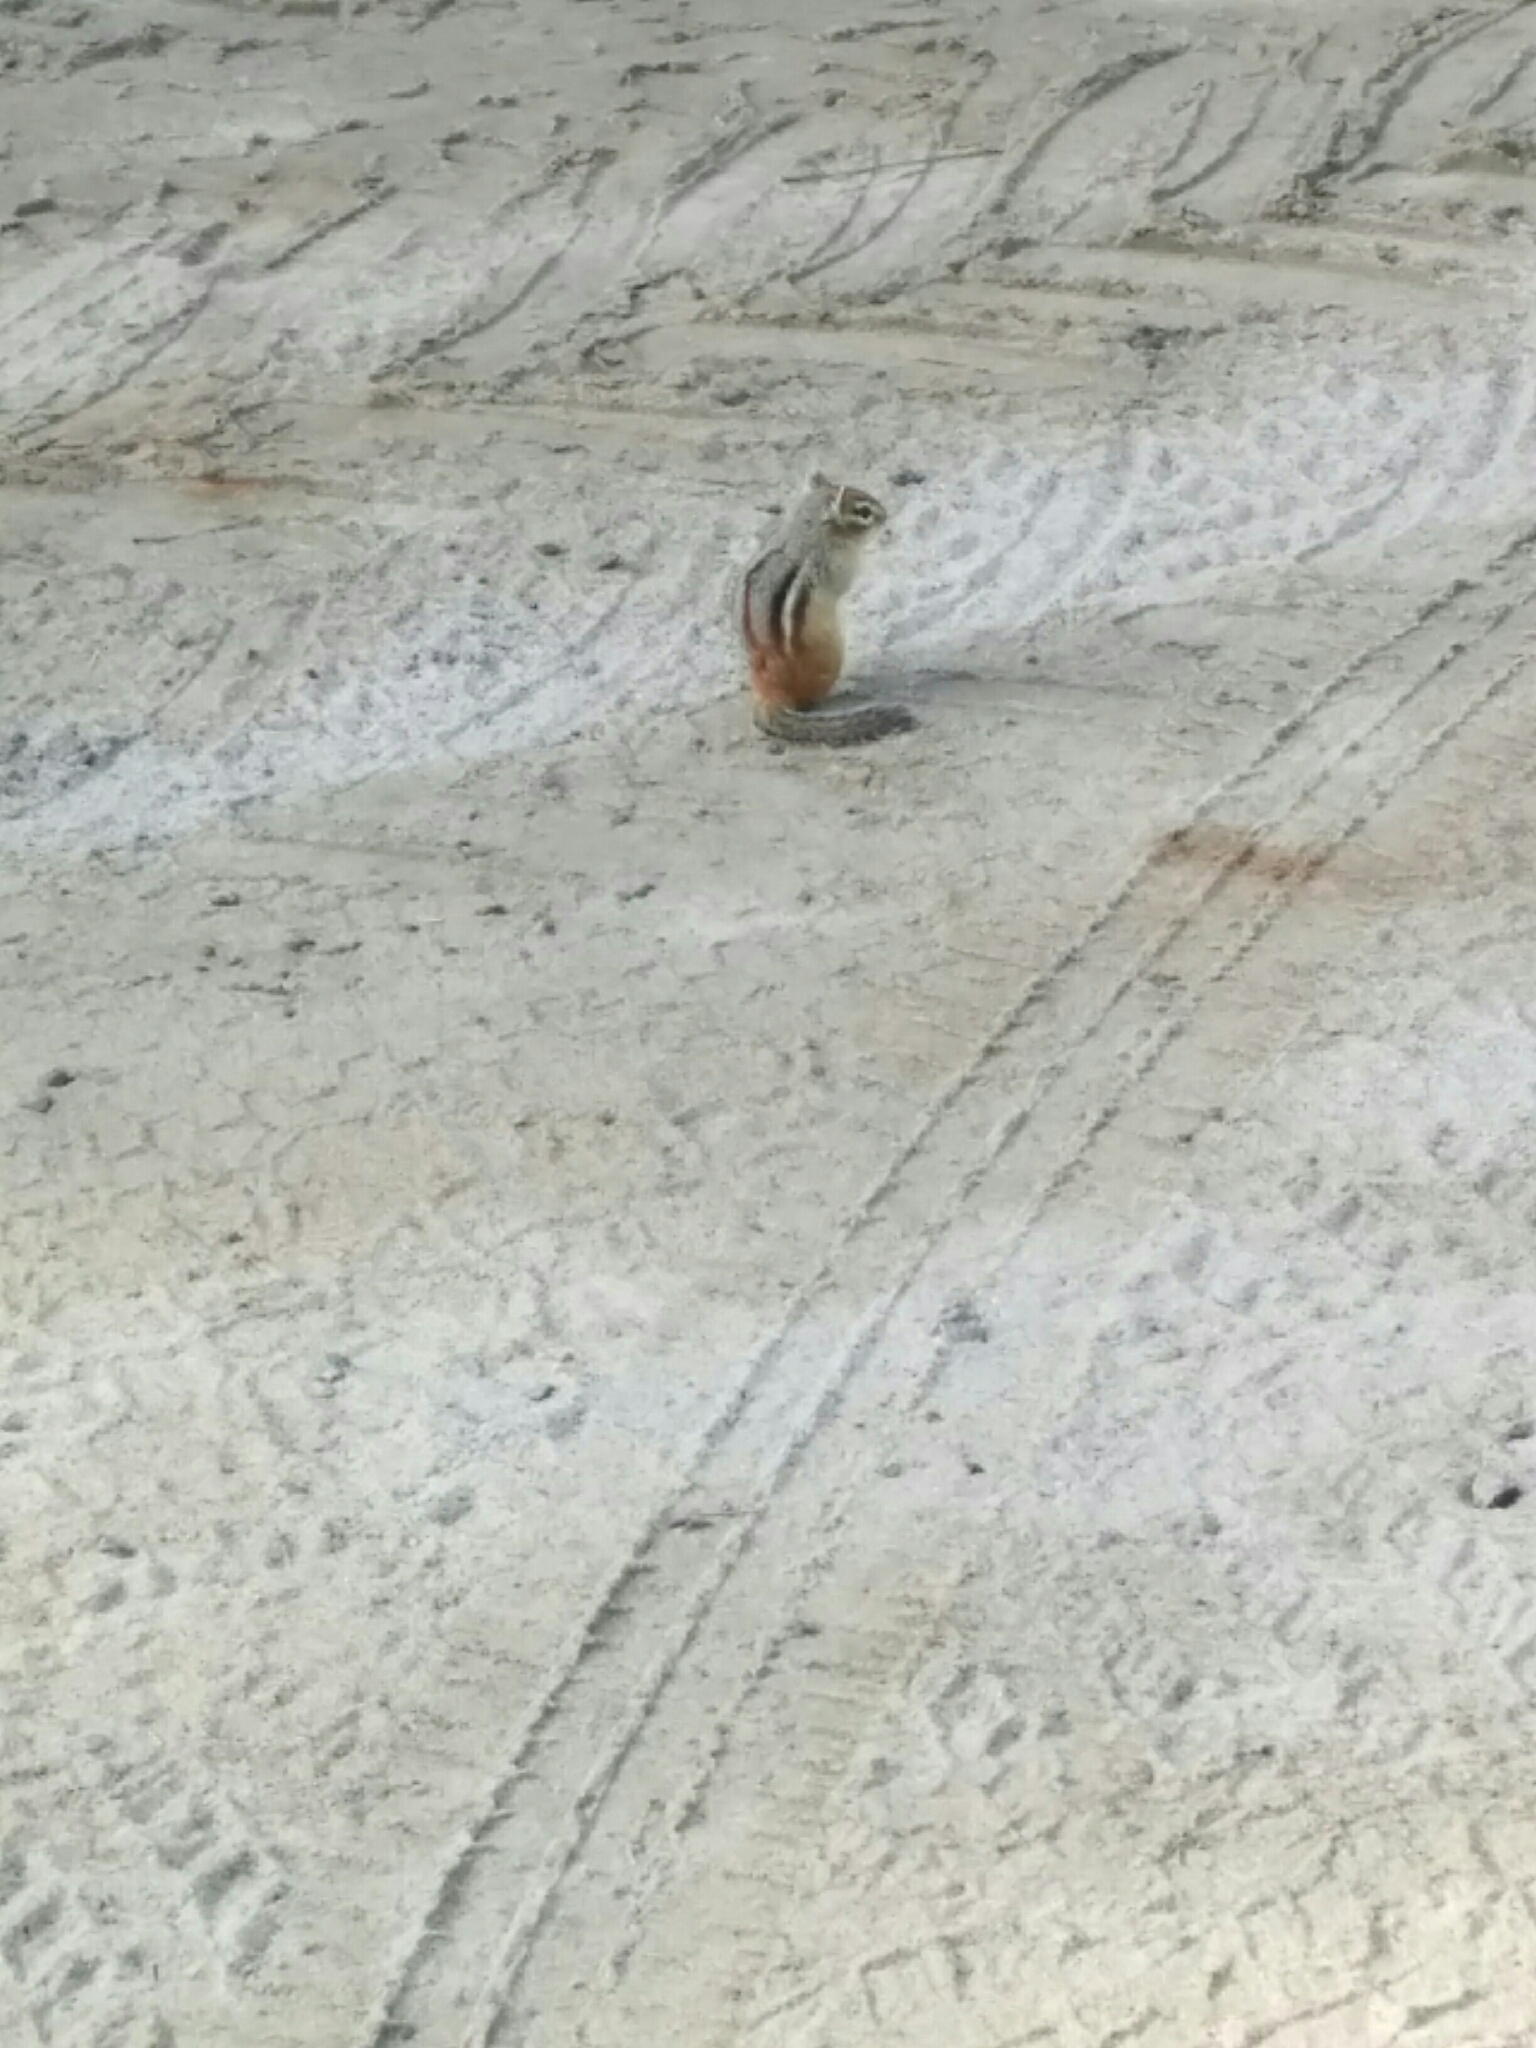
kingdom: Animalia
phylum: Chordata
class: Mammalia
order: Rodentia
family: Sciuridae
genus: Tamias
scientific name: Tamias striatus
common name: Eastern chipmunk
